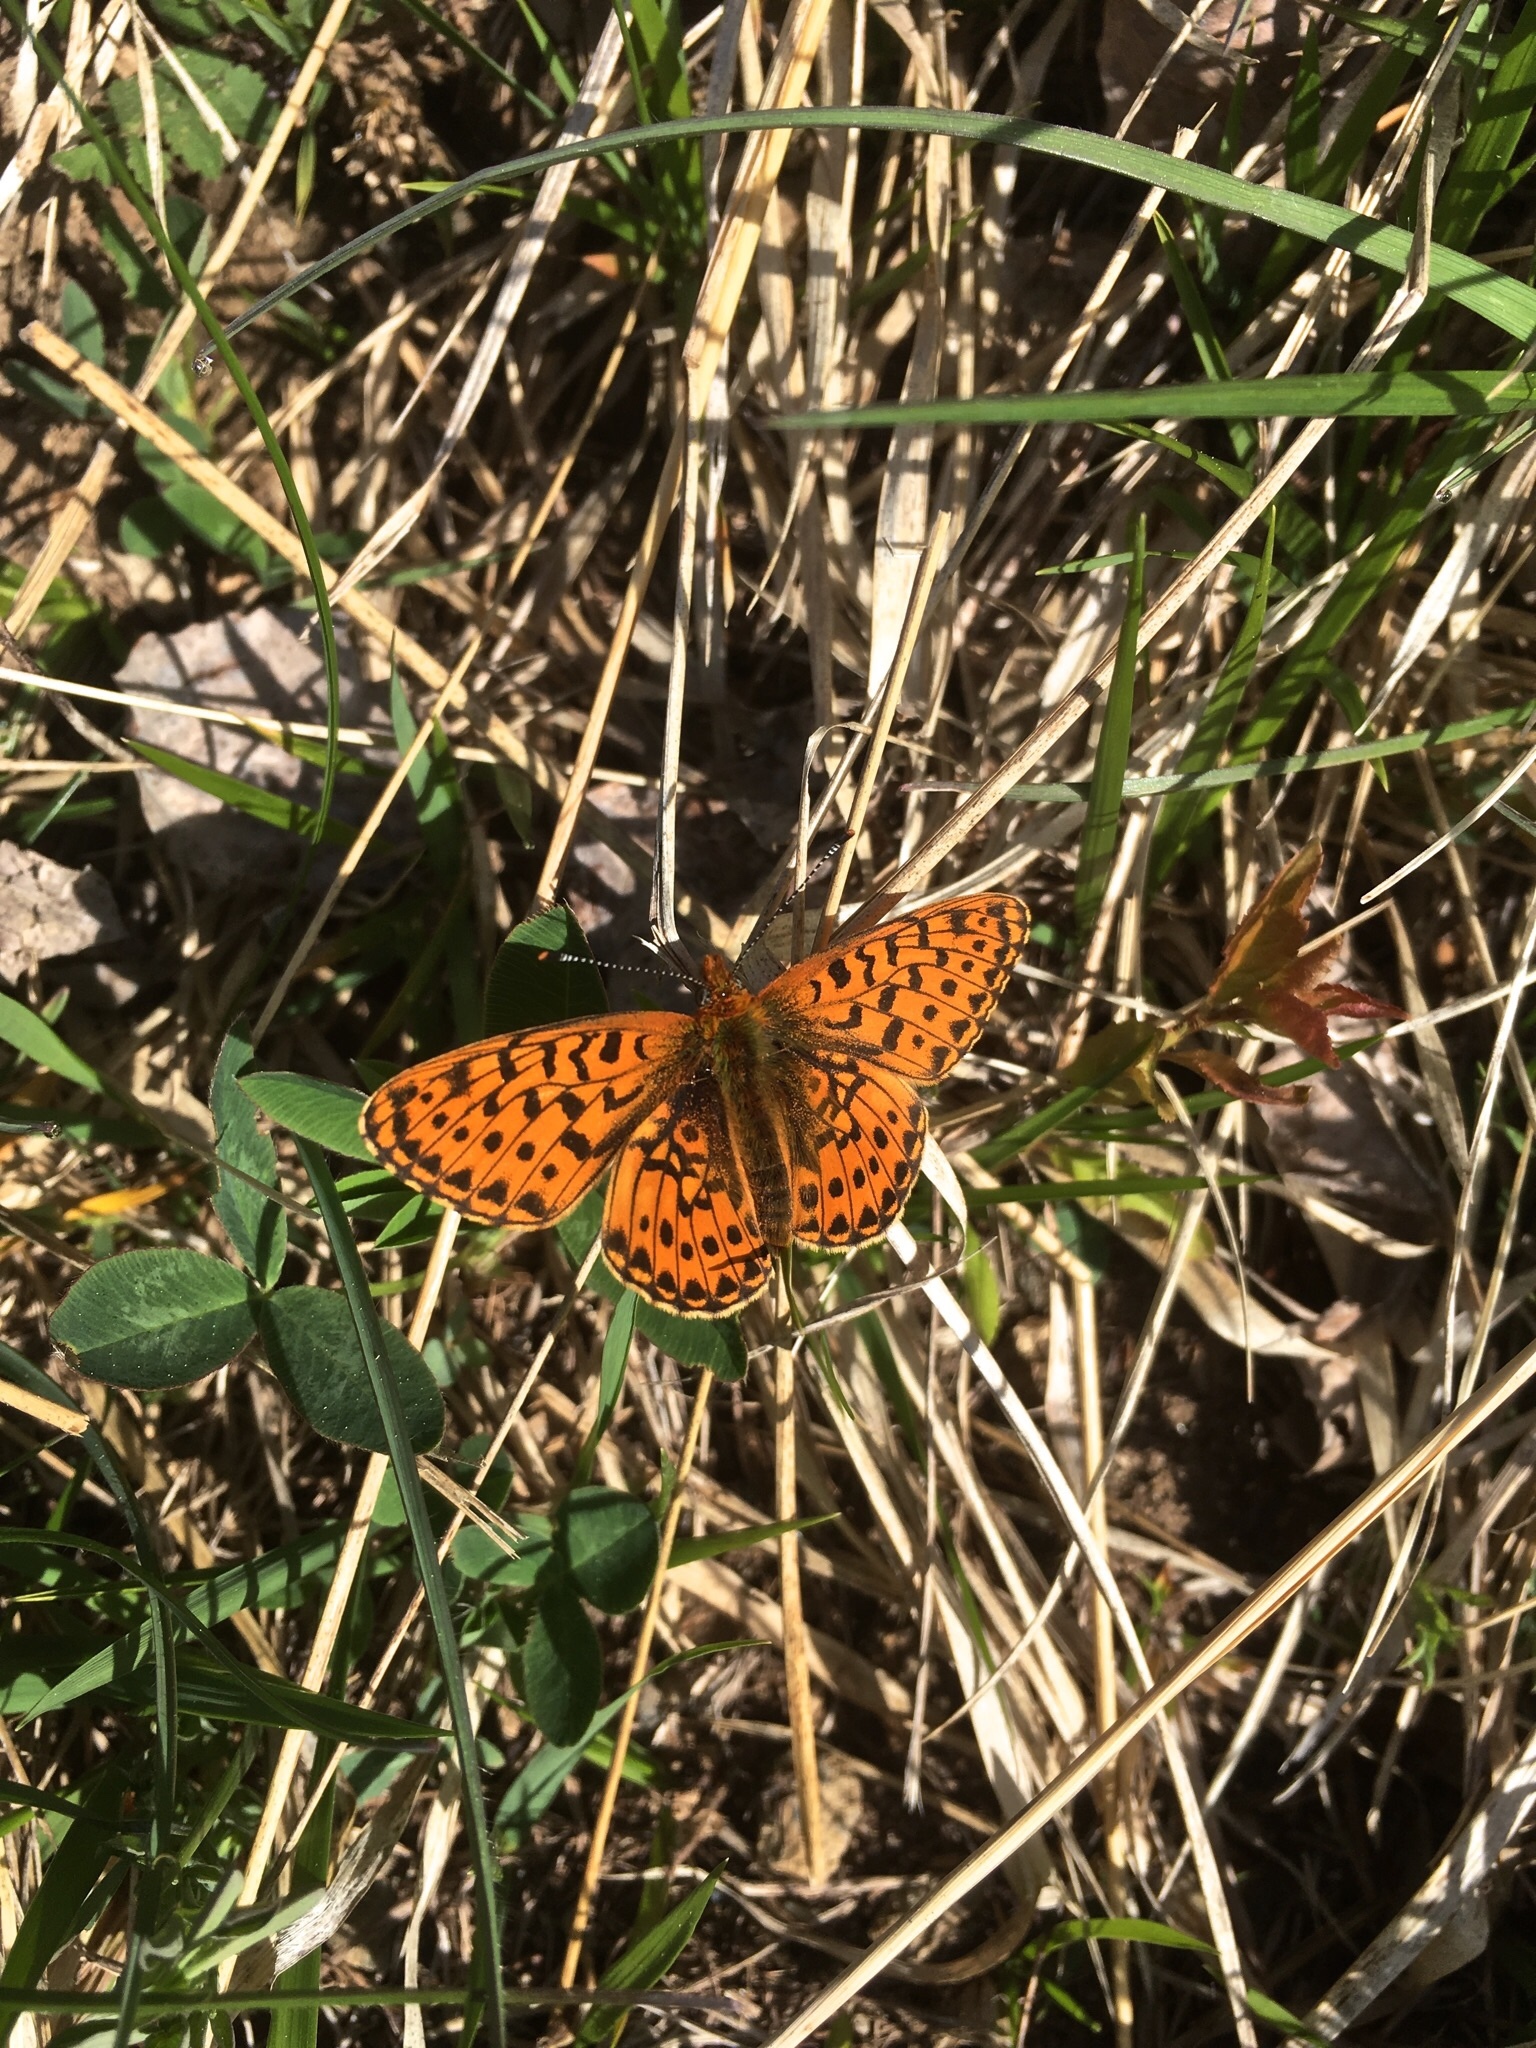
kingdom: Animalia
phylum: Arthropoda
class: Insecta
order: Lepidoptera
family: Nymphalidae
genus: Clossiana
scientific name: Clossiana euphrosyne
